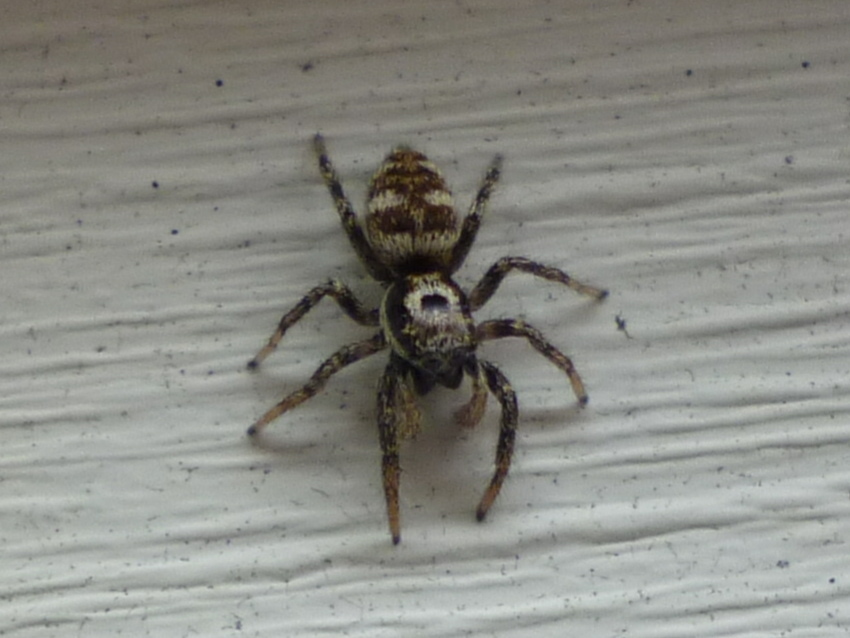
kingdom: Animalia
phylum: Arthropoda
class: Arachnida
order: Araneae
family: Salticidae
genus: Salticus
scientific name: Salticus scenicus
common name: Zebra jumper
